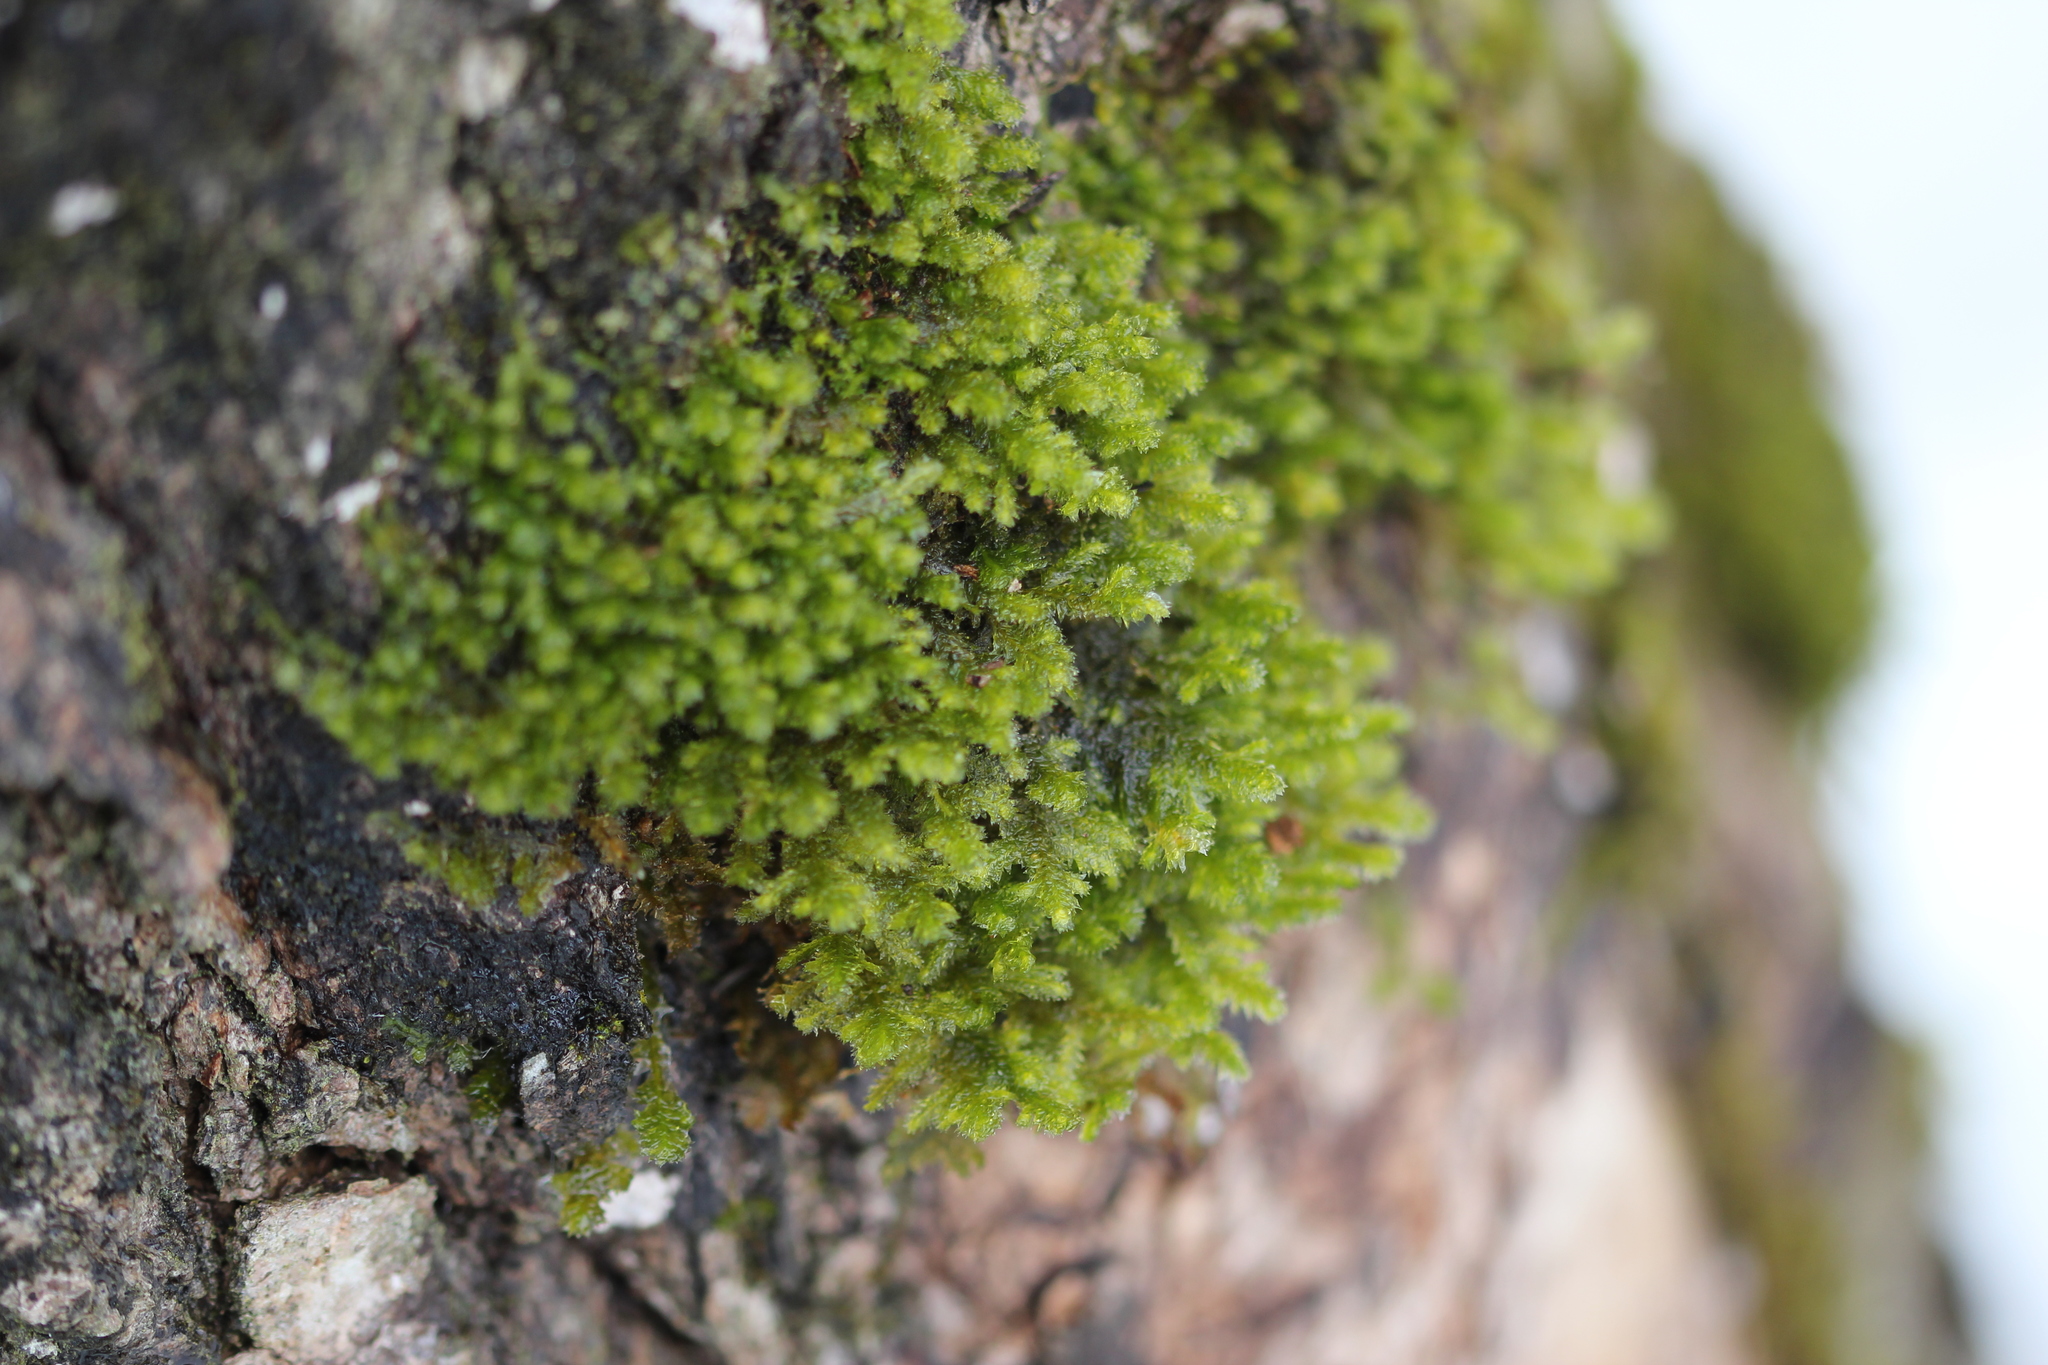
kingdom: Plantae
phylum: Bryophyta
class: Bryopsida
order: Hypnales
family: Neckeraceae
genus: Neckera
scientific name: Neckera pennata
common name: Feathery neckera
